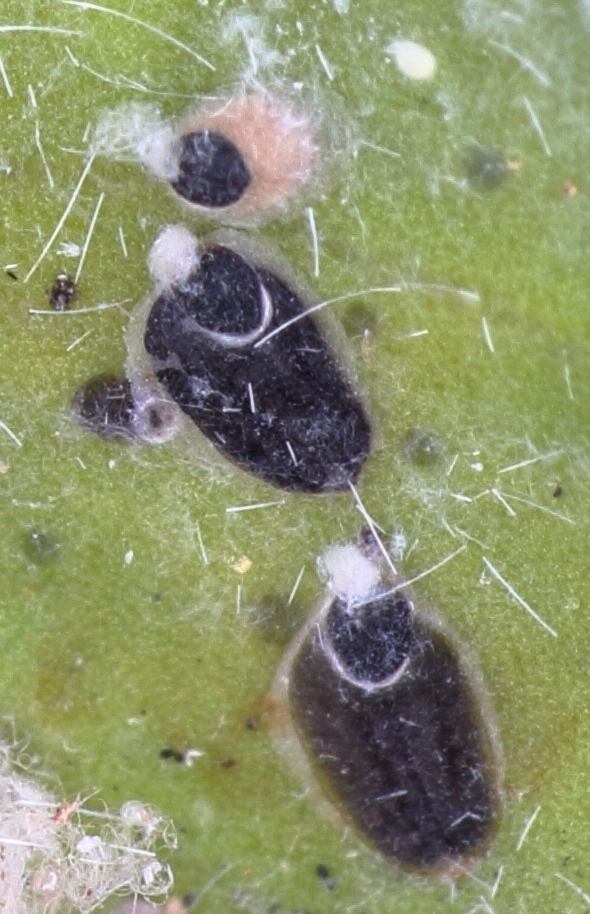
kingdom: Animalia
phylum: Arthropoda
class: Insecta
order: Hemiptera
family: Diaspididae
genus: Parlatoria
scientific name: Parlatoria ziziphi
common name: Mediterranean scale
